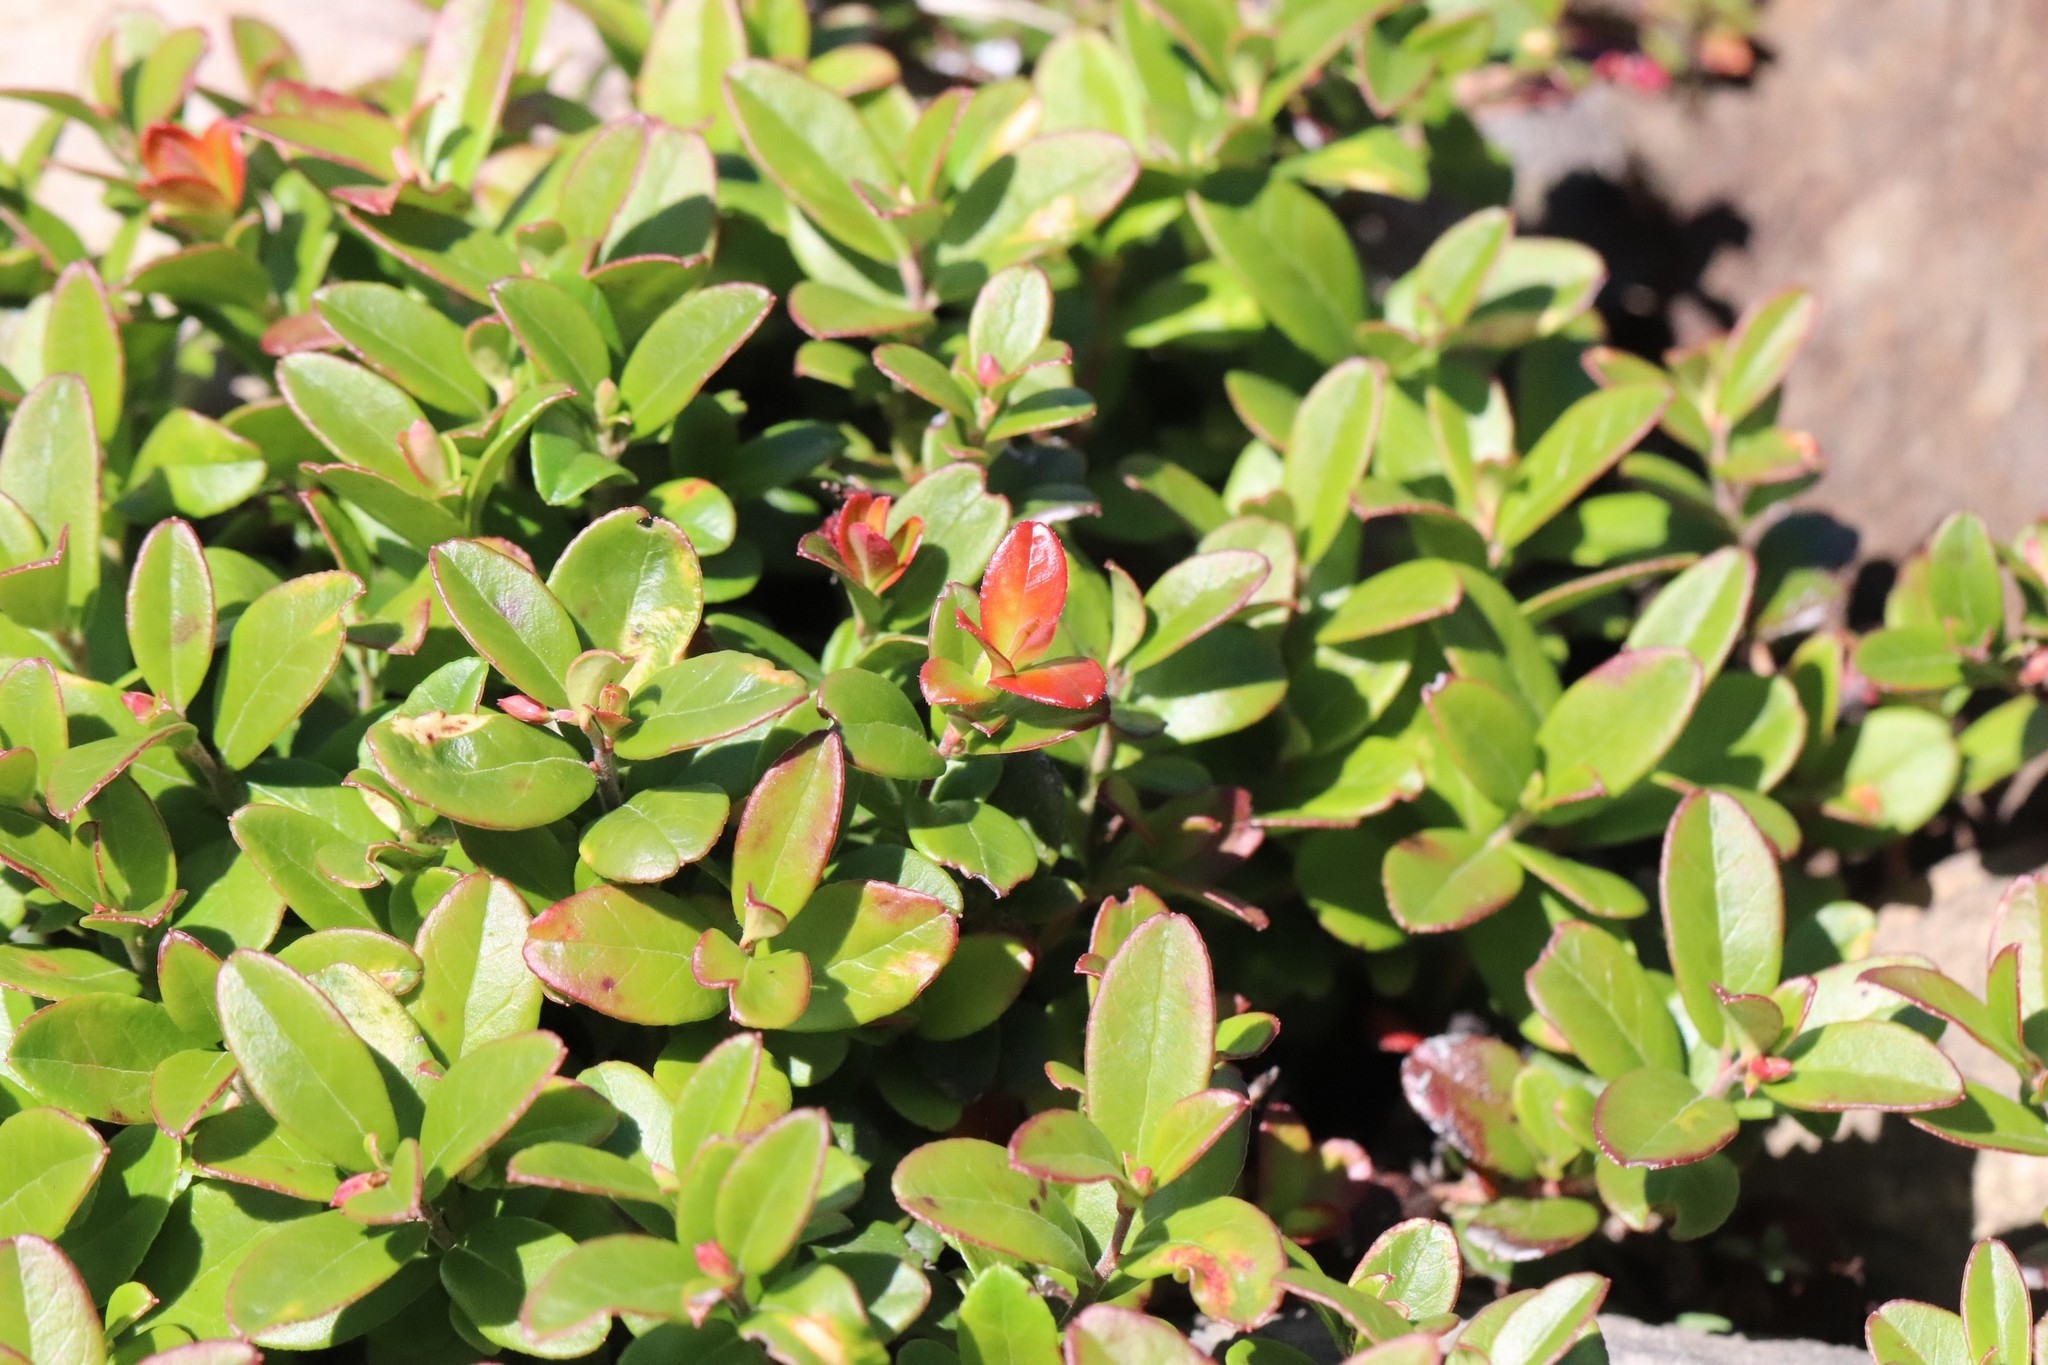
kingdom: Plantae
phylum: Tracheophyta
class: Magnoliopsida
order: Ericales
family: Ericaceae
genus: Vaccinium
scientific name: Vaccinium vitis-idaea
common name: Cowberry
